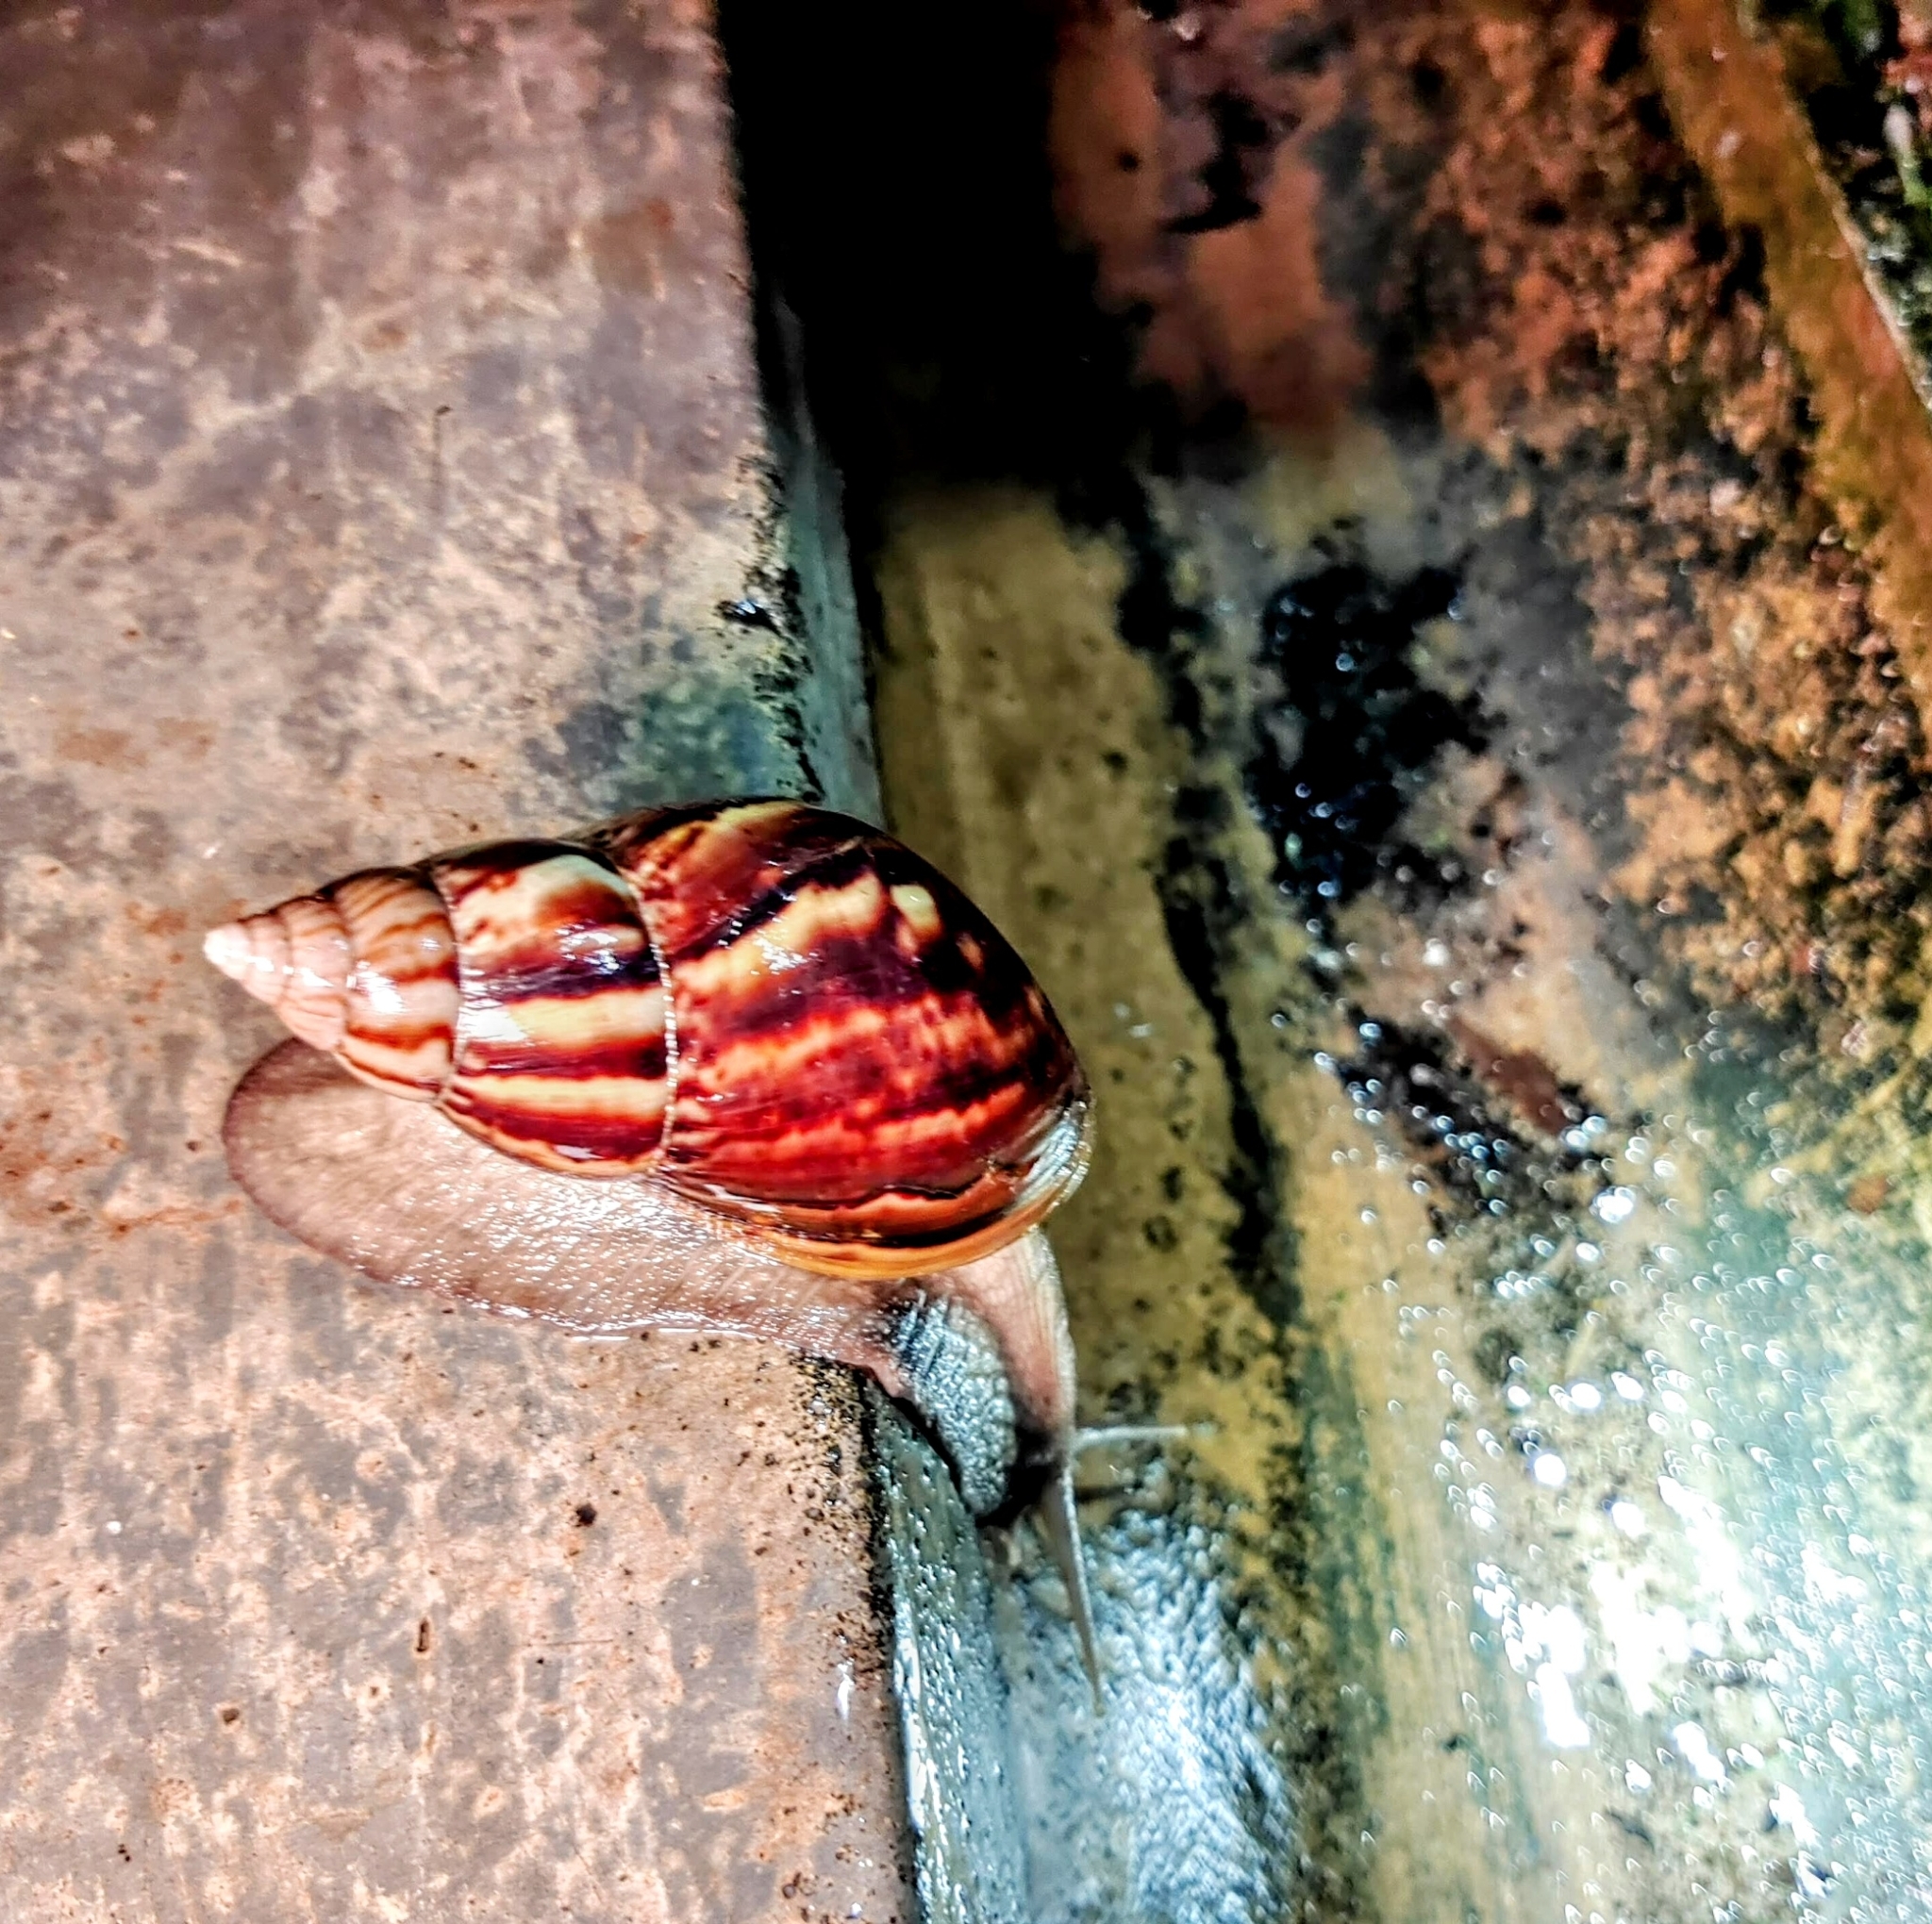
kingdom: Animalia
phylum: Mollusca
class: Gastropoda
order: Stylommatophora
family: Achatinidae
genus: Lissachatina
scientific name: Lissachatina fulica
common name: Giant african snail
